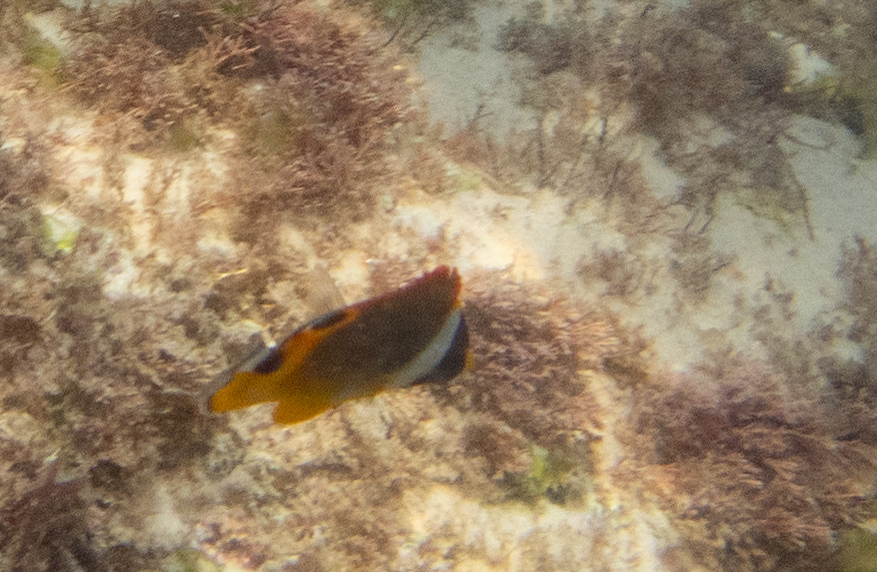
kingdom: Animalia
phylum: Chordata
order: Perciformes
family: Chaetodontidae
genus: Chaetodon
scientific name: Chaetodon lunula
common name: Raccoon butterflyfish
